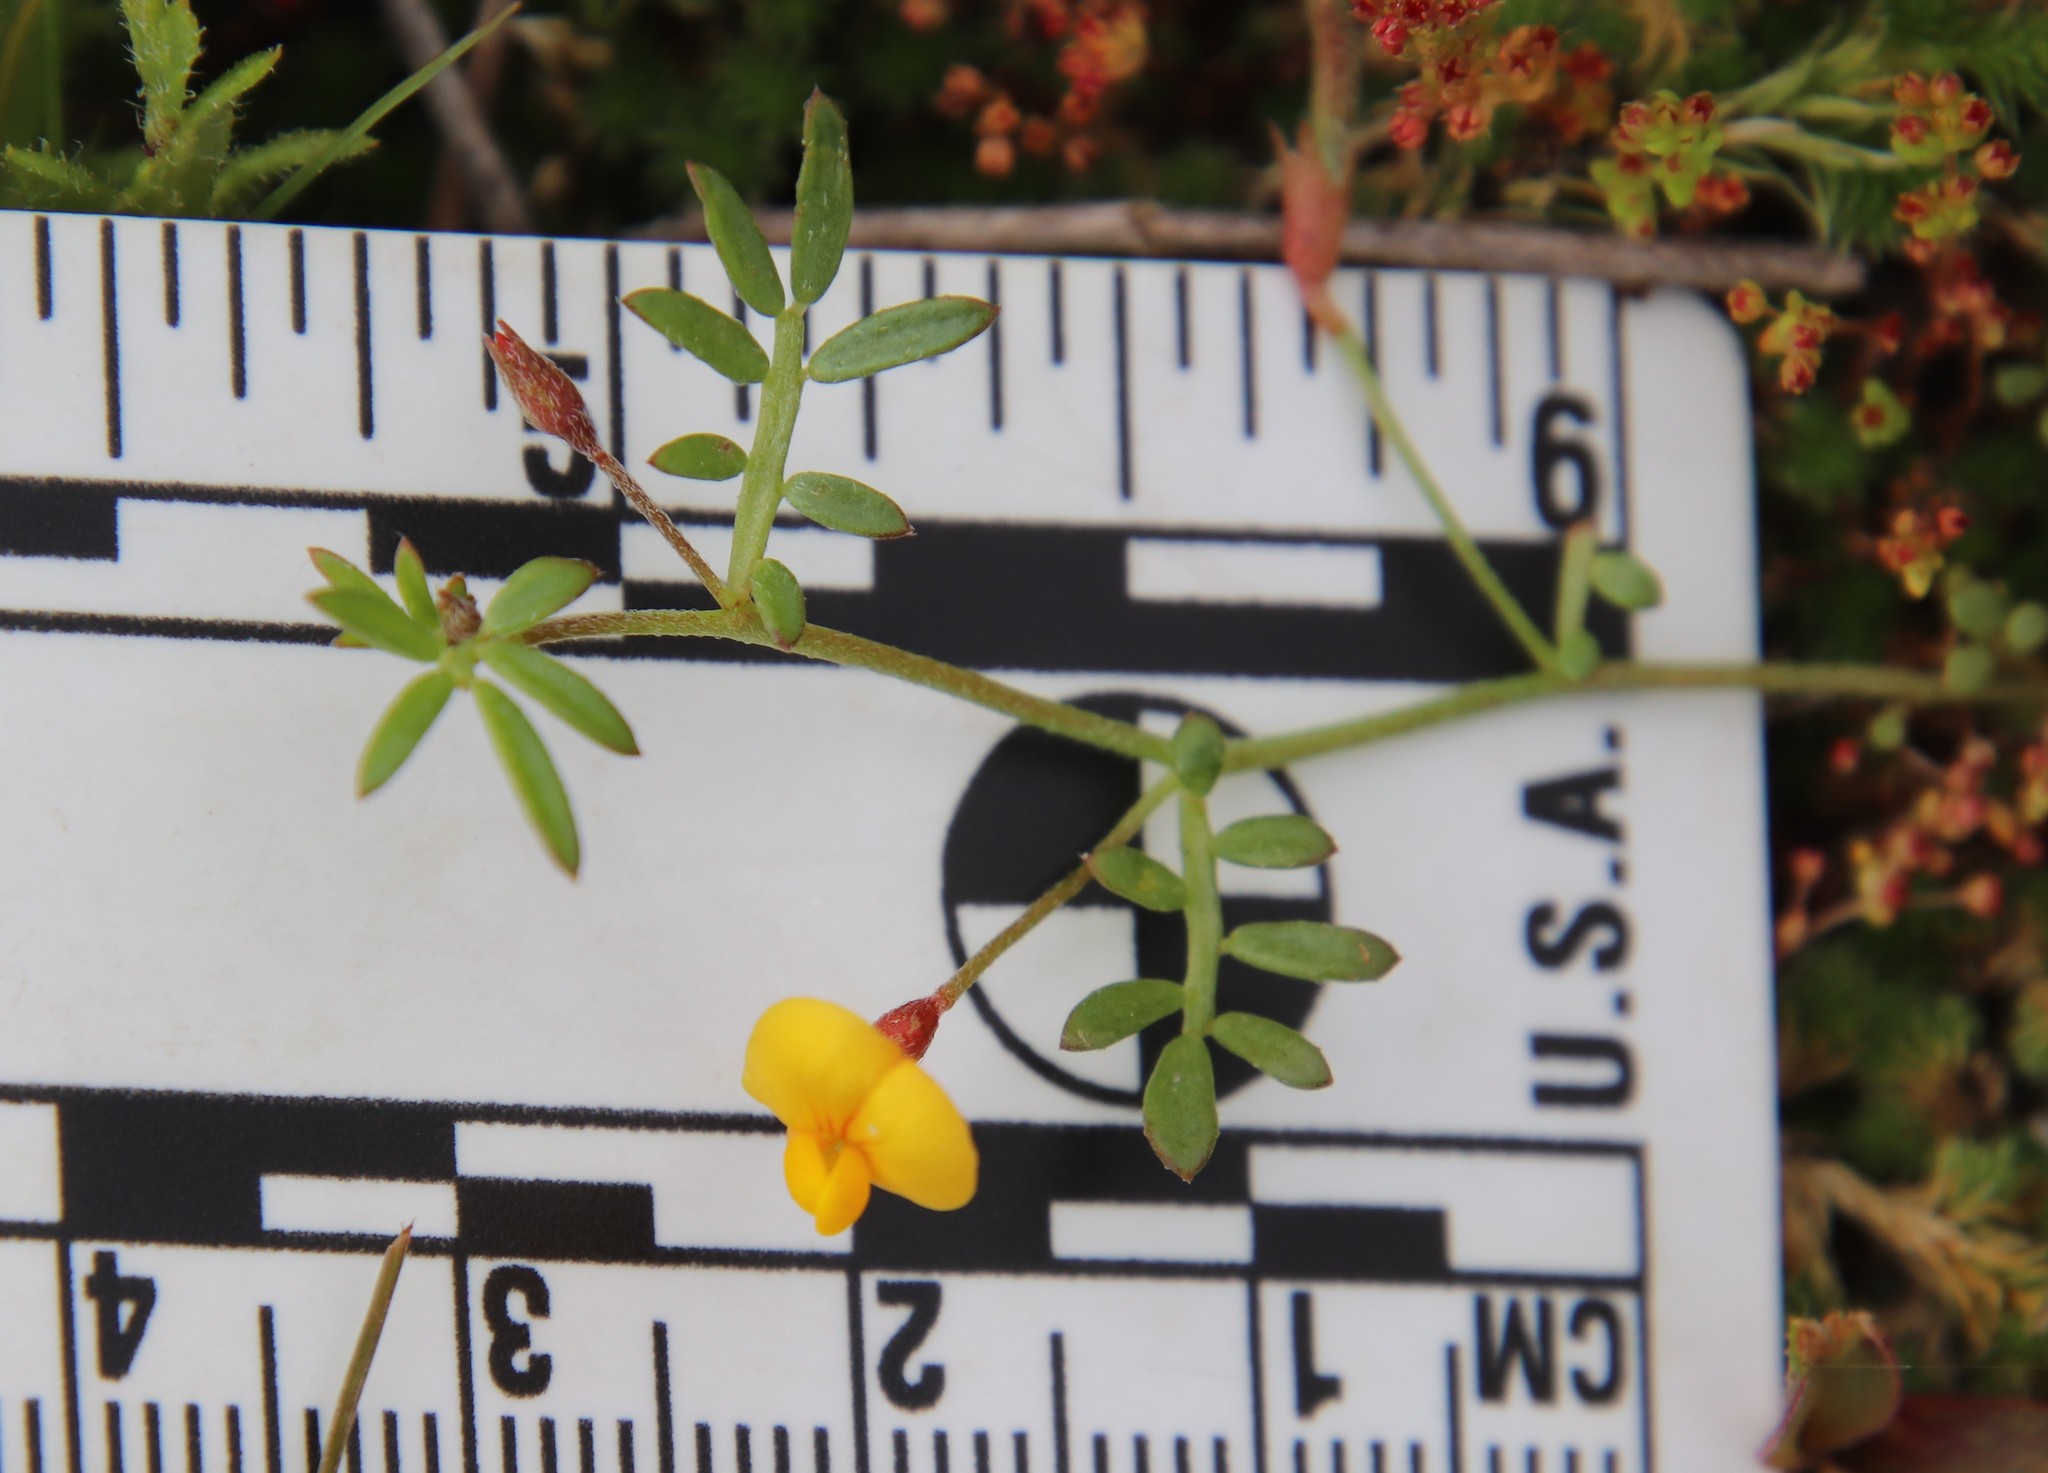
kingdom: Plantae
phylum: Tracheophyta
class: Magnoliopsida
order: Fabales
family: Fabaceae
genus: Acmispon
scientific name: Acmispon strigosus
